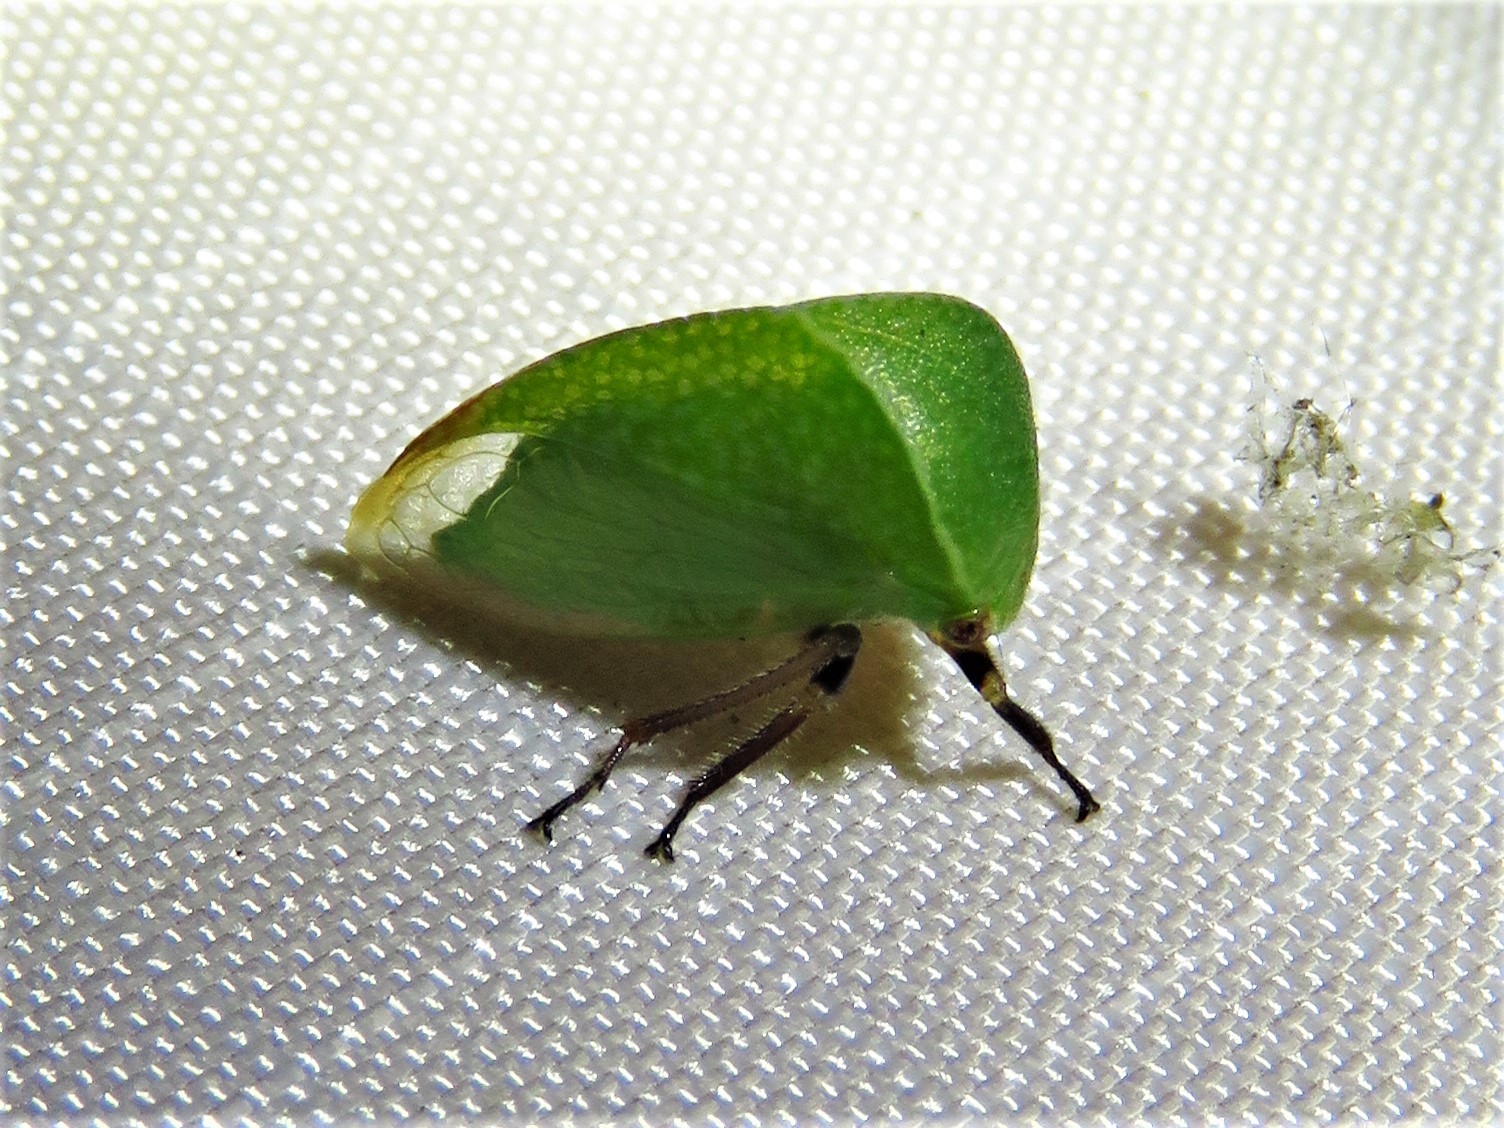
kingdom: Animalia
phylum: Arthropoda
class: Insecta
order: Hemiptera
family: Membracidae
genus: Tortistilus
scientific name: Tortistilus inermis
